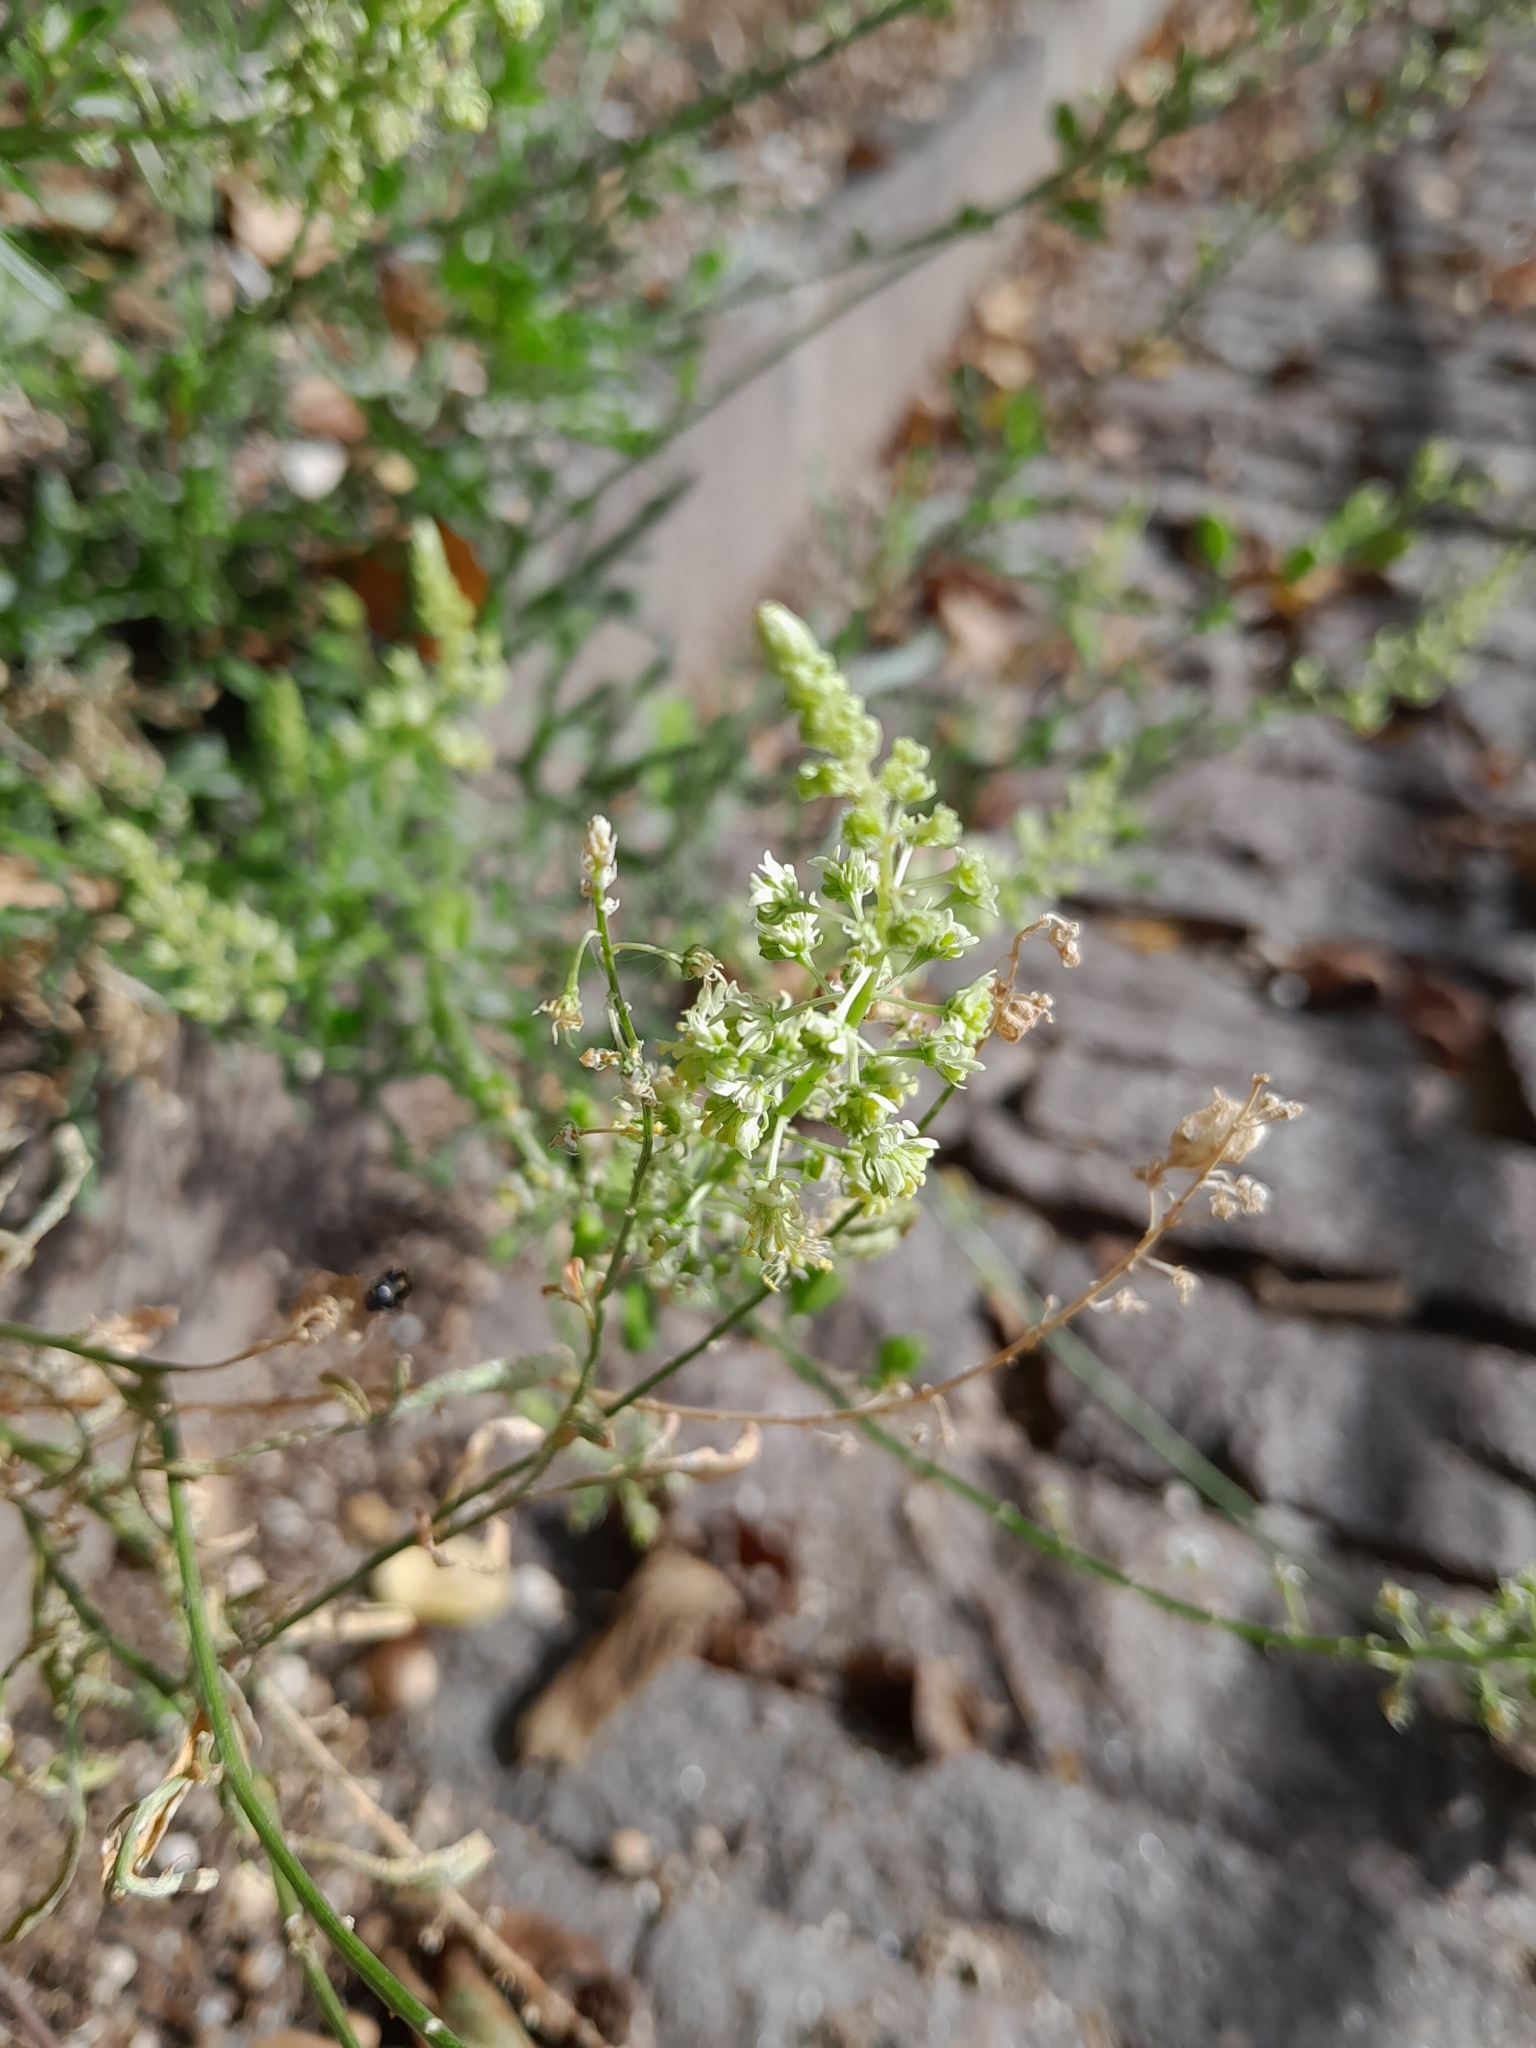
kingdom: Plantae
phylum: Tracheophyta
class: Magnoliopsida
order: Brassicales
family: Resedaceae
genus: Reseda
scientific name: Reseda lutea
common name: Wild mignonette
